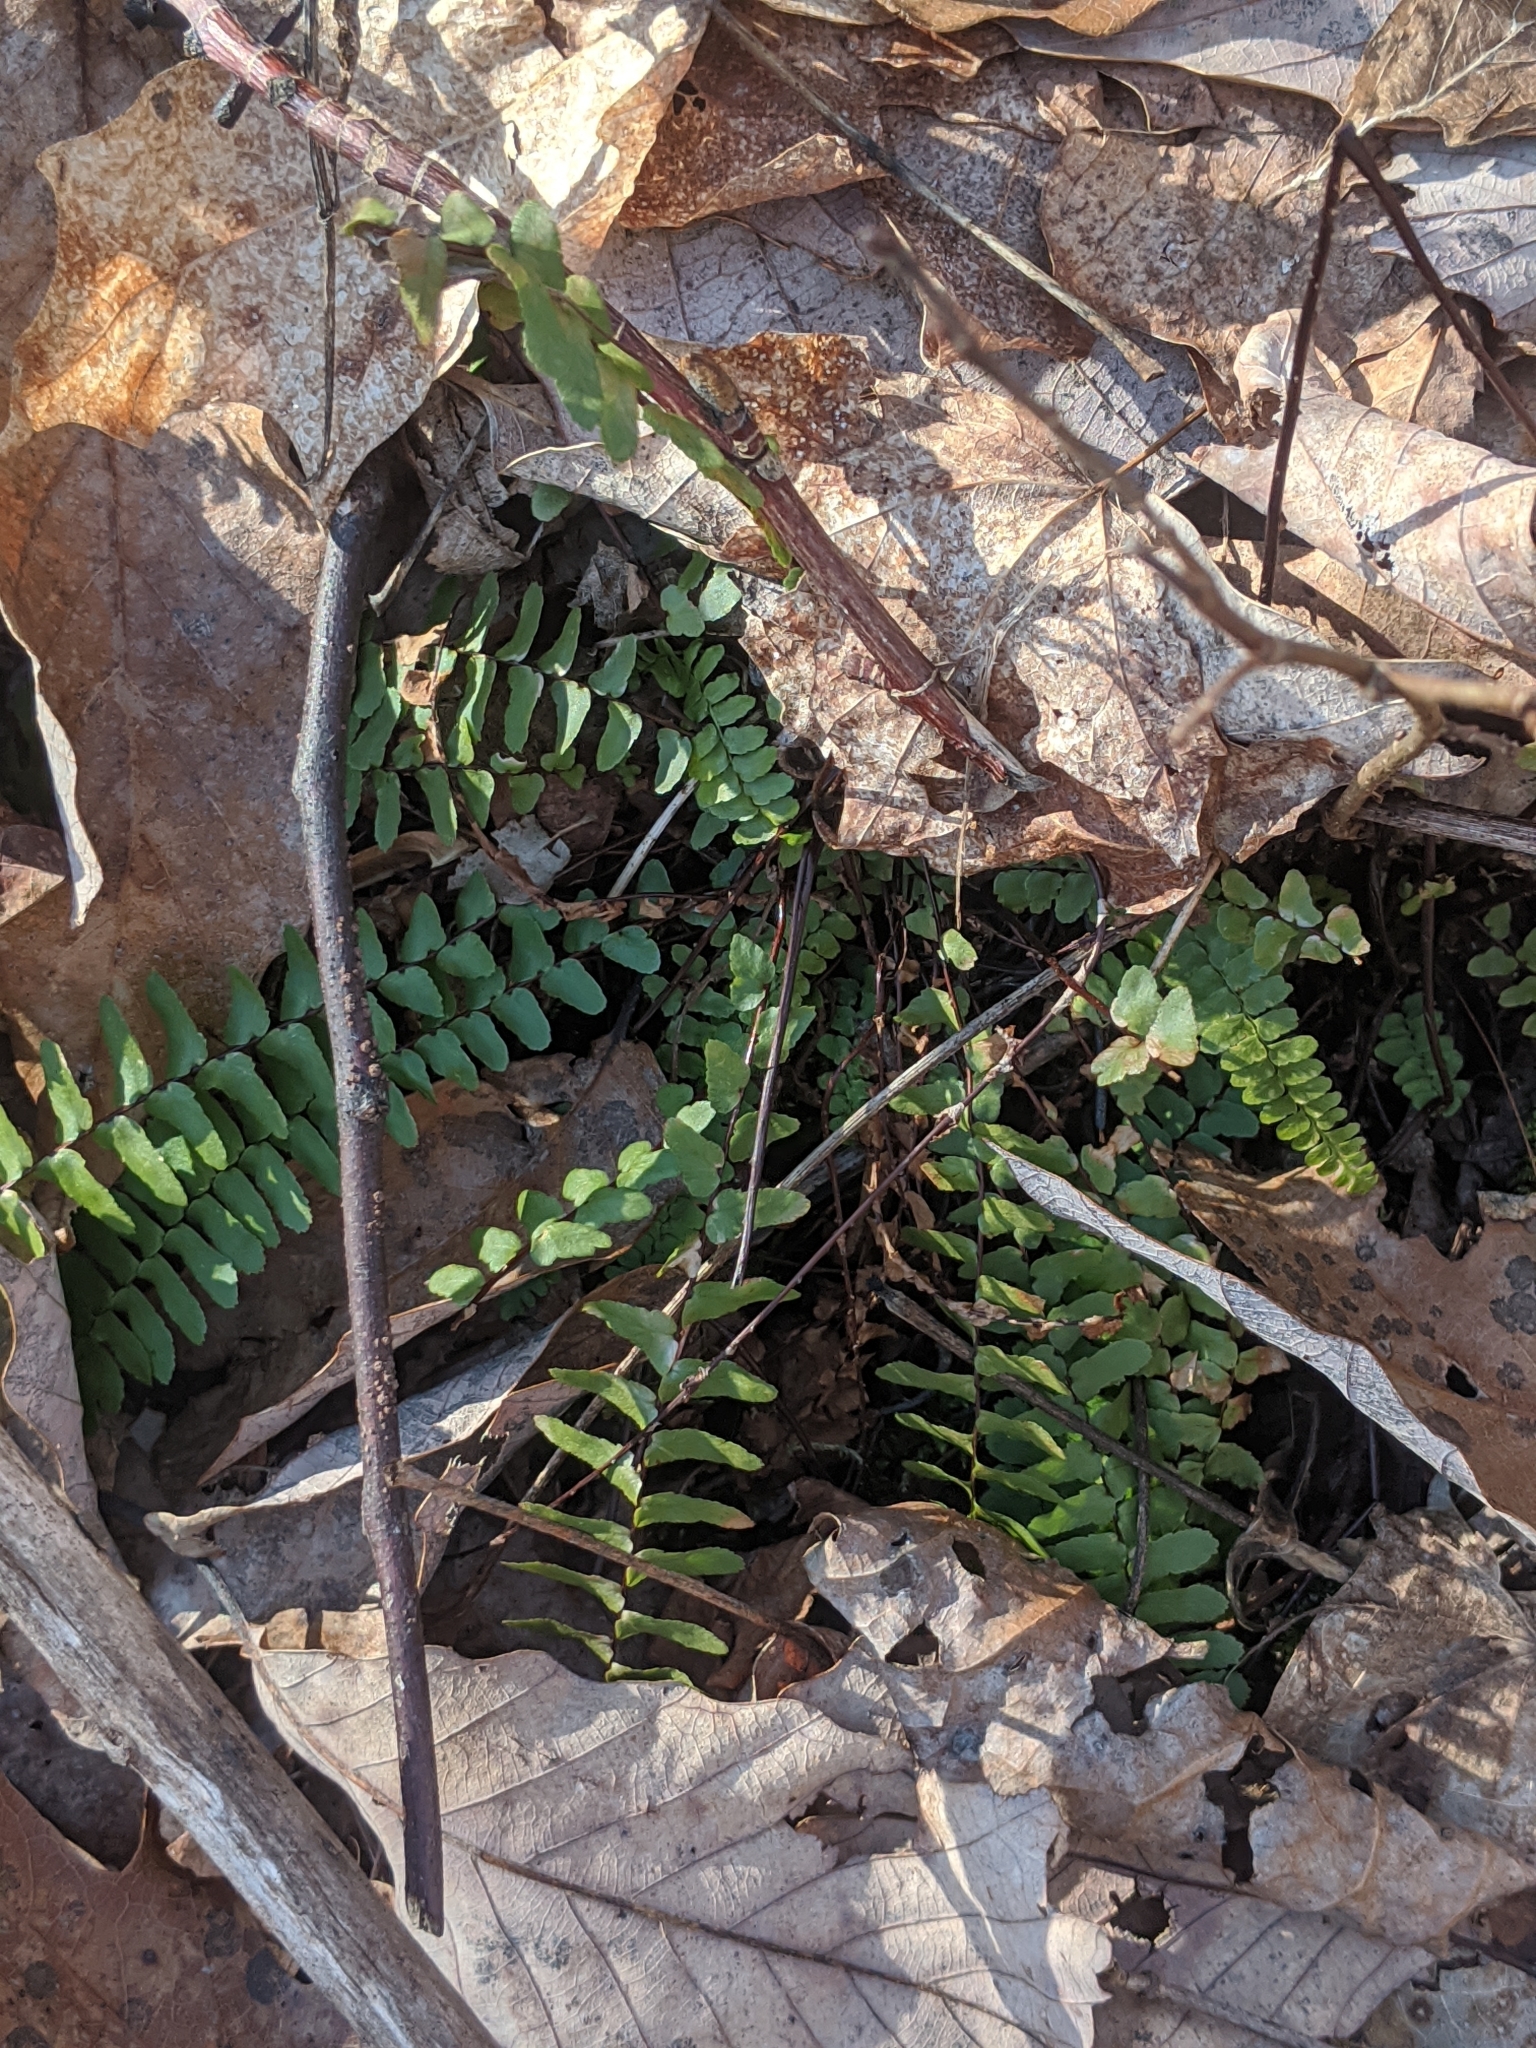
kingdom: Plantae
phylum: Tracheophyta
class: Polypodiopsida
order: Polypodiales
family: Aspleniaceae
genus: Asplenium
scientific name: Asplenium platyneuron
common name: Ebony spleenwort
